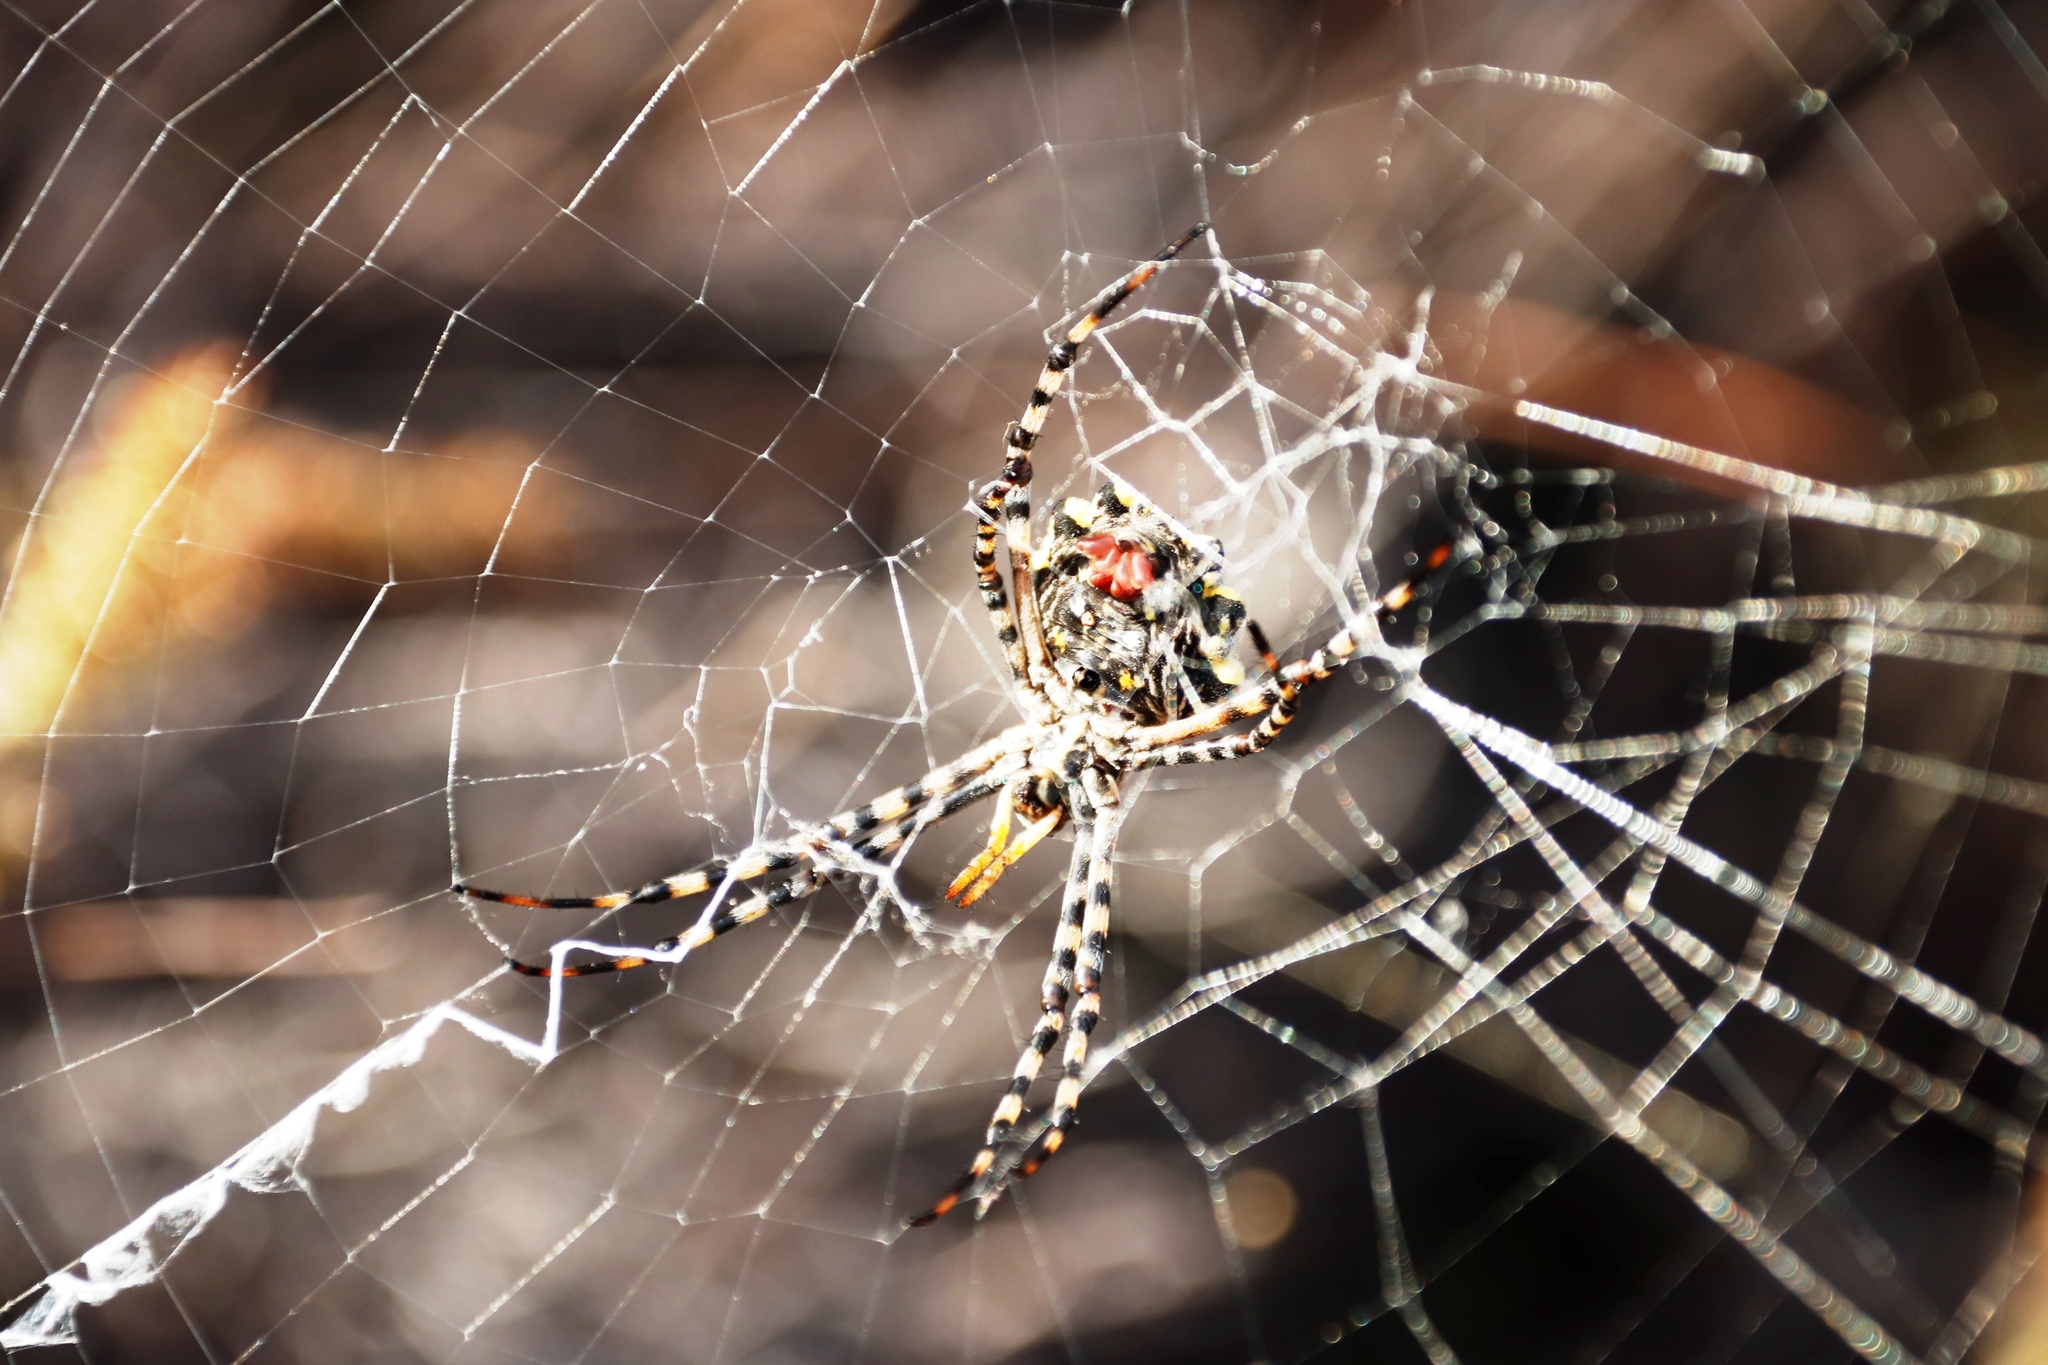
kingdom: Animalia
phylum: Arthropoda
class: Arachnida
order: Araneae
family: Araneidae
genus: Argiope
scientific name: Argiope australis
